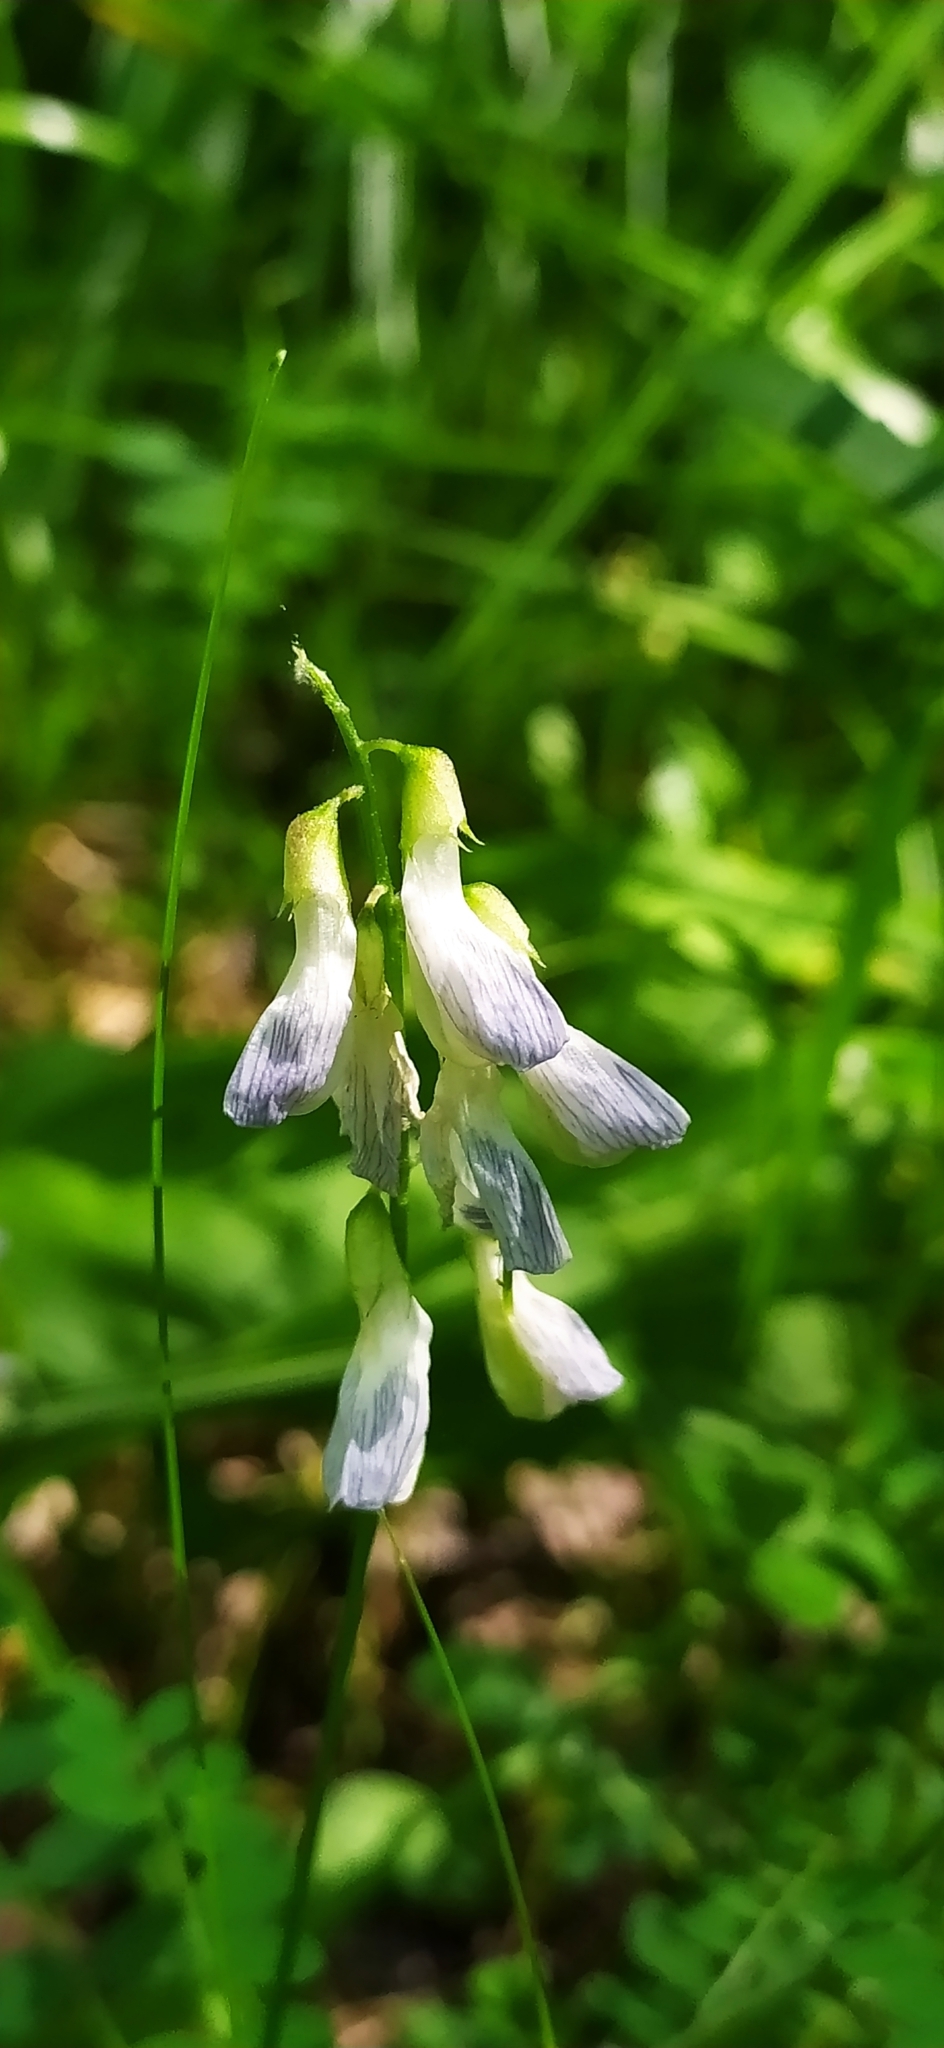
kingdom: Plantae
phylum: Tracheophyta
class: Magnoliopsida
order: Fabales
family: Fabaceae
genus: Vicia
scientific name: Vicia sylvatica
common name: Wood vetch
